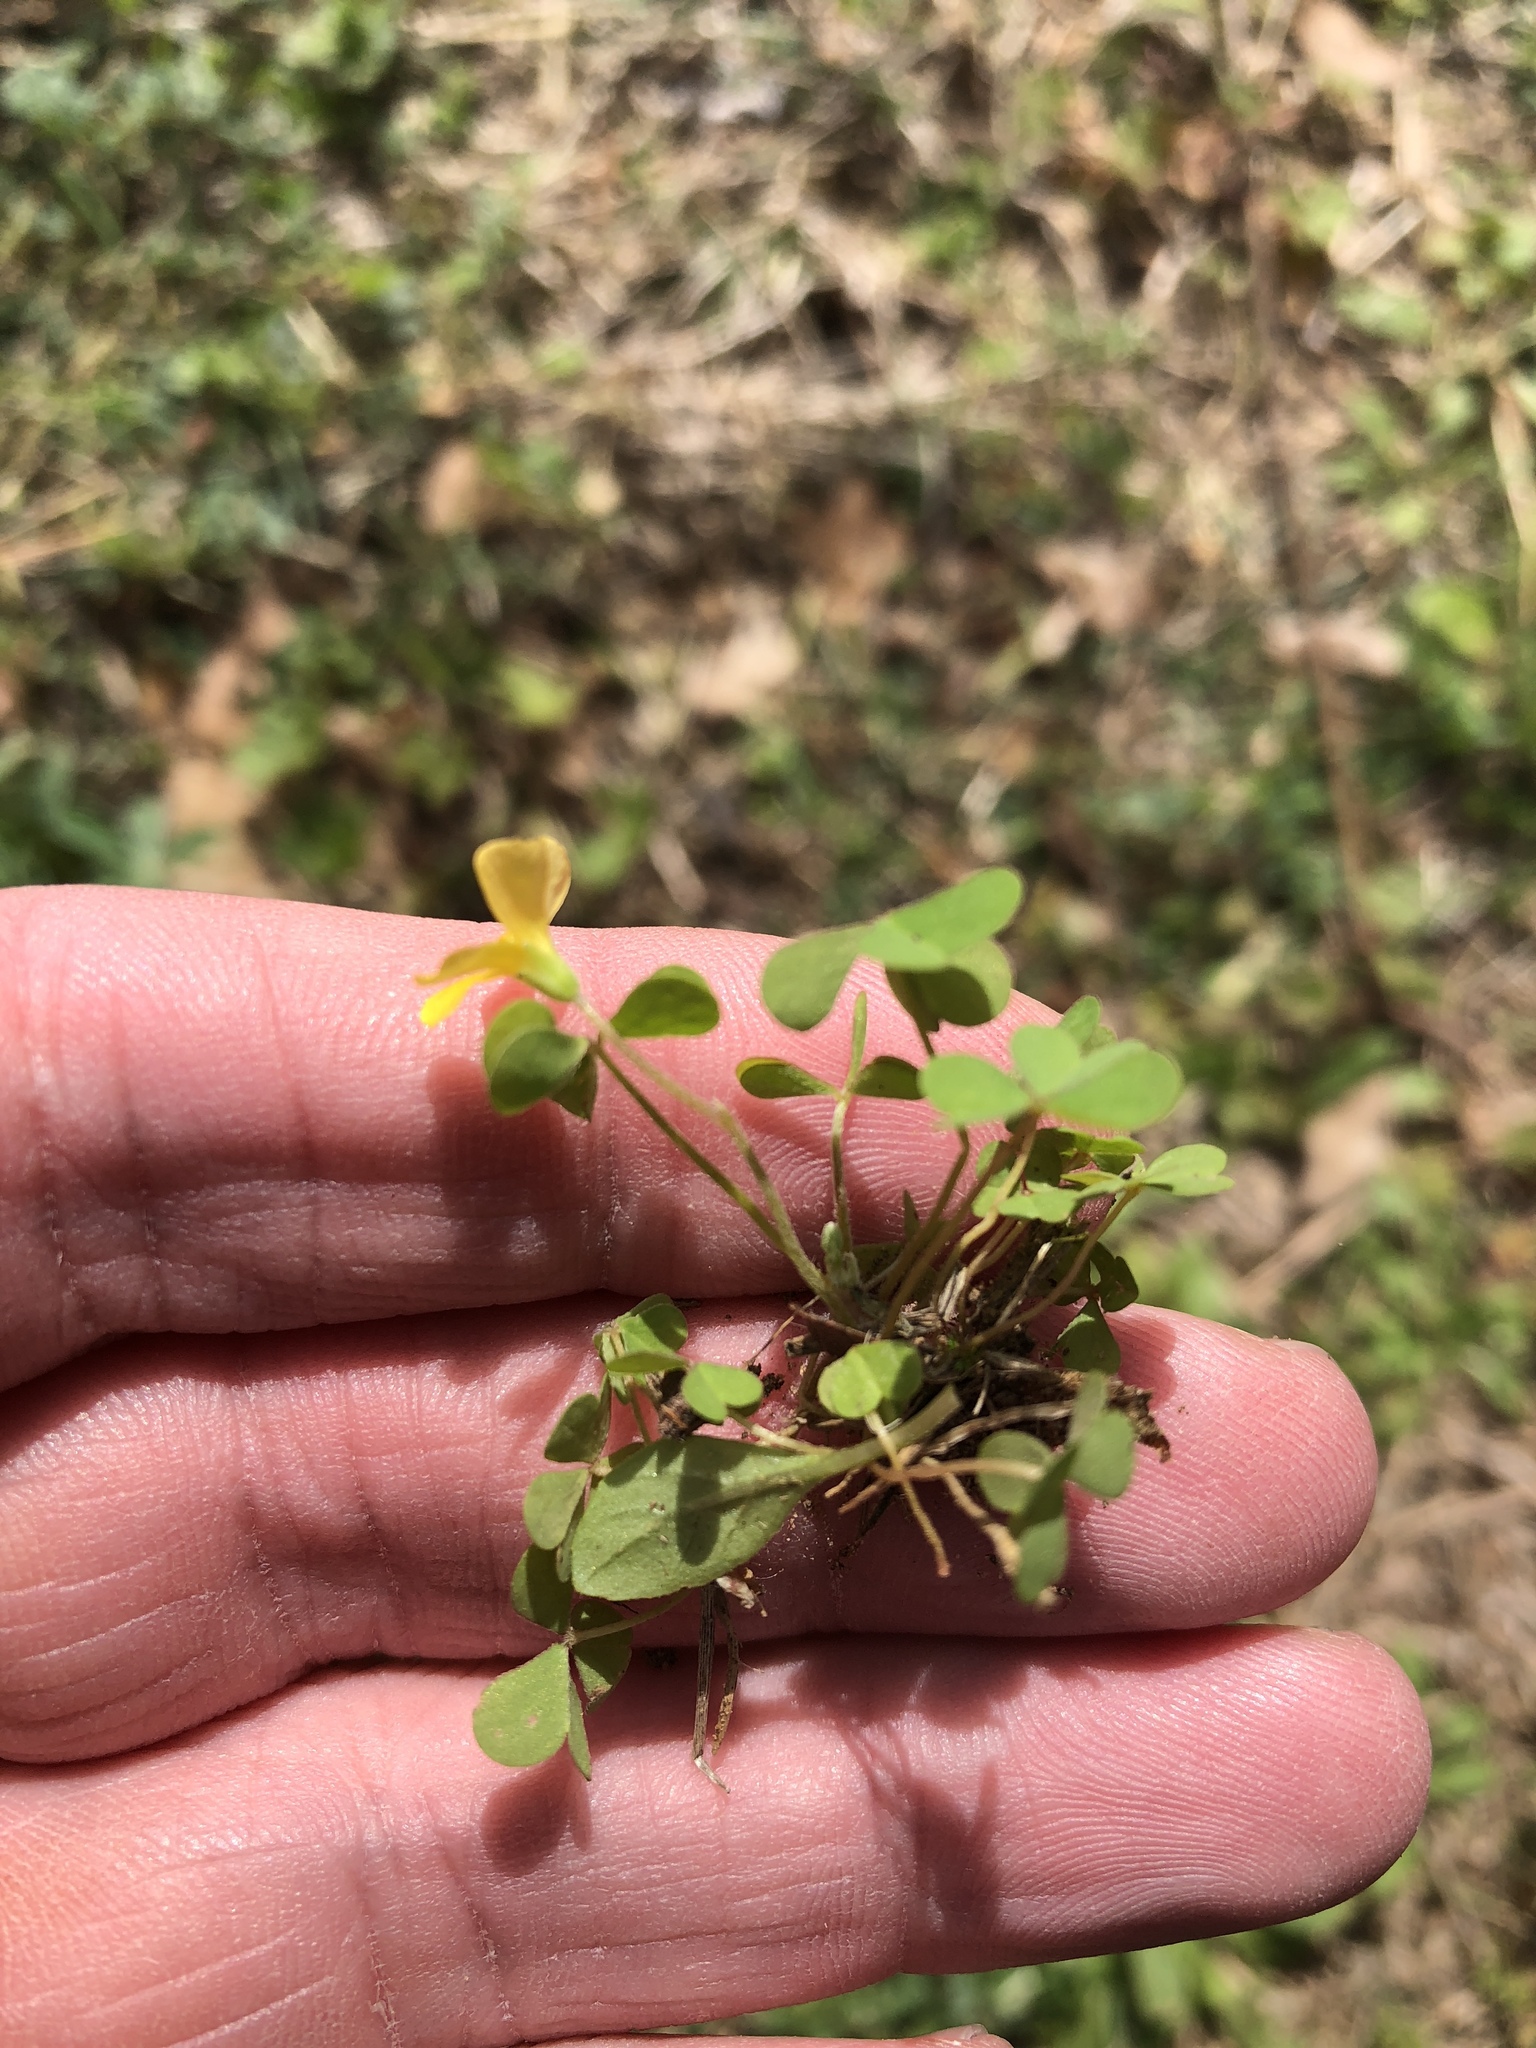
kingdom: Plantae
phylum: Tracheophyta
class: Magnoliopsida
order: Oxalidales
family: Oxalidaceae
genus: Oxalis
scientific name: Oxalis dillenii
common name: Sussex yellow-sorrel
